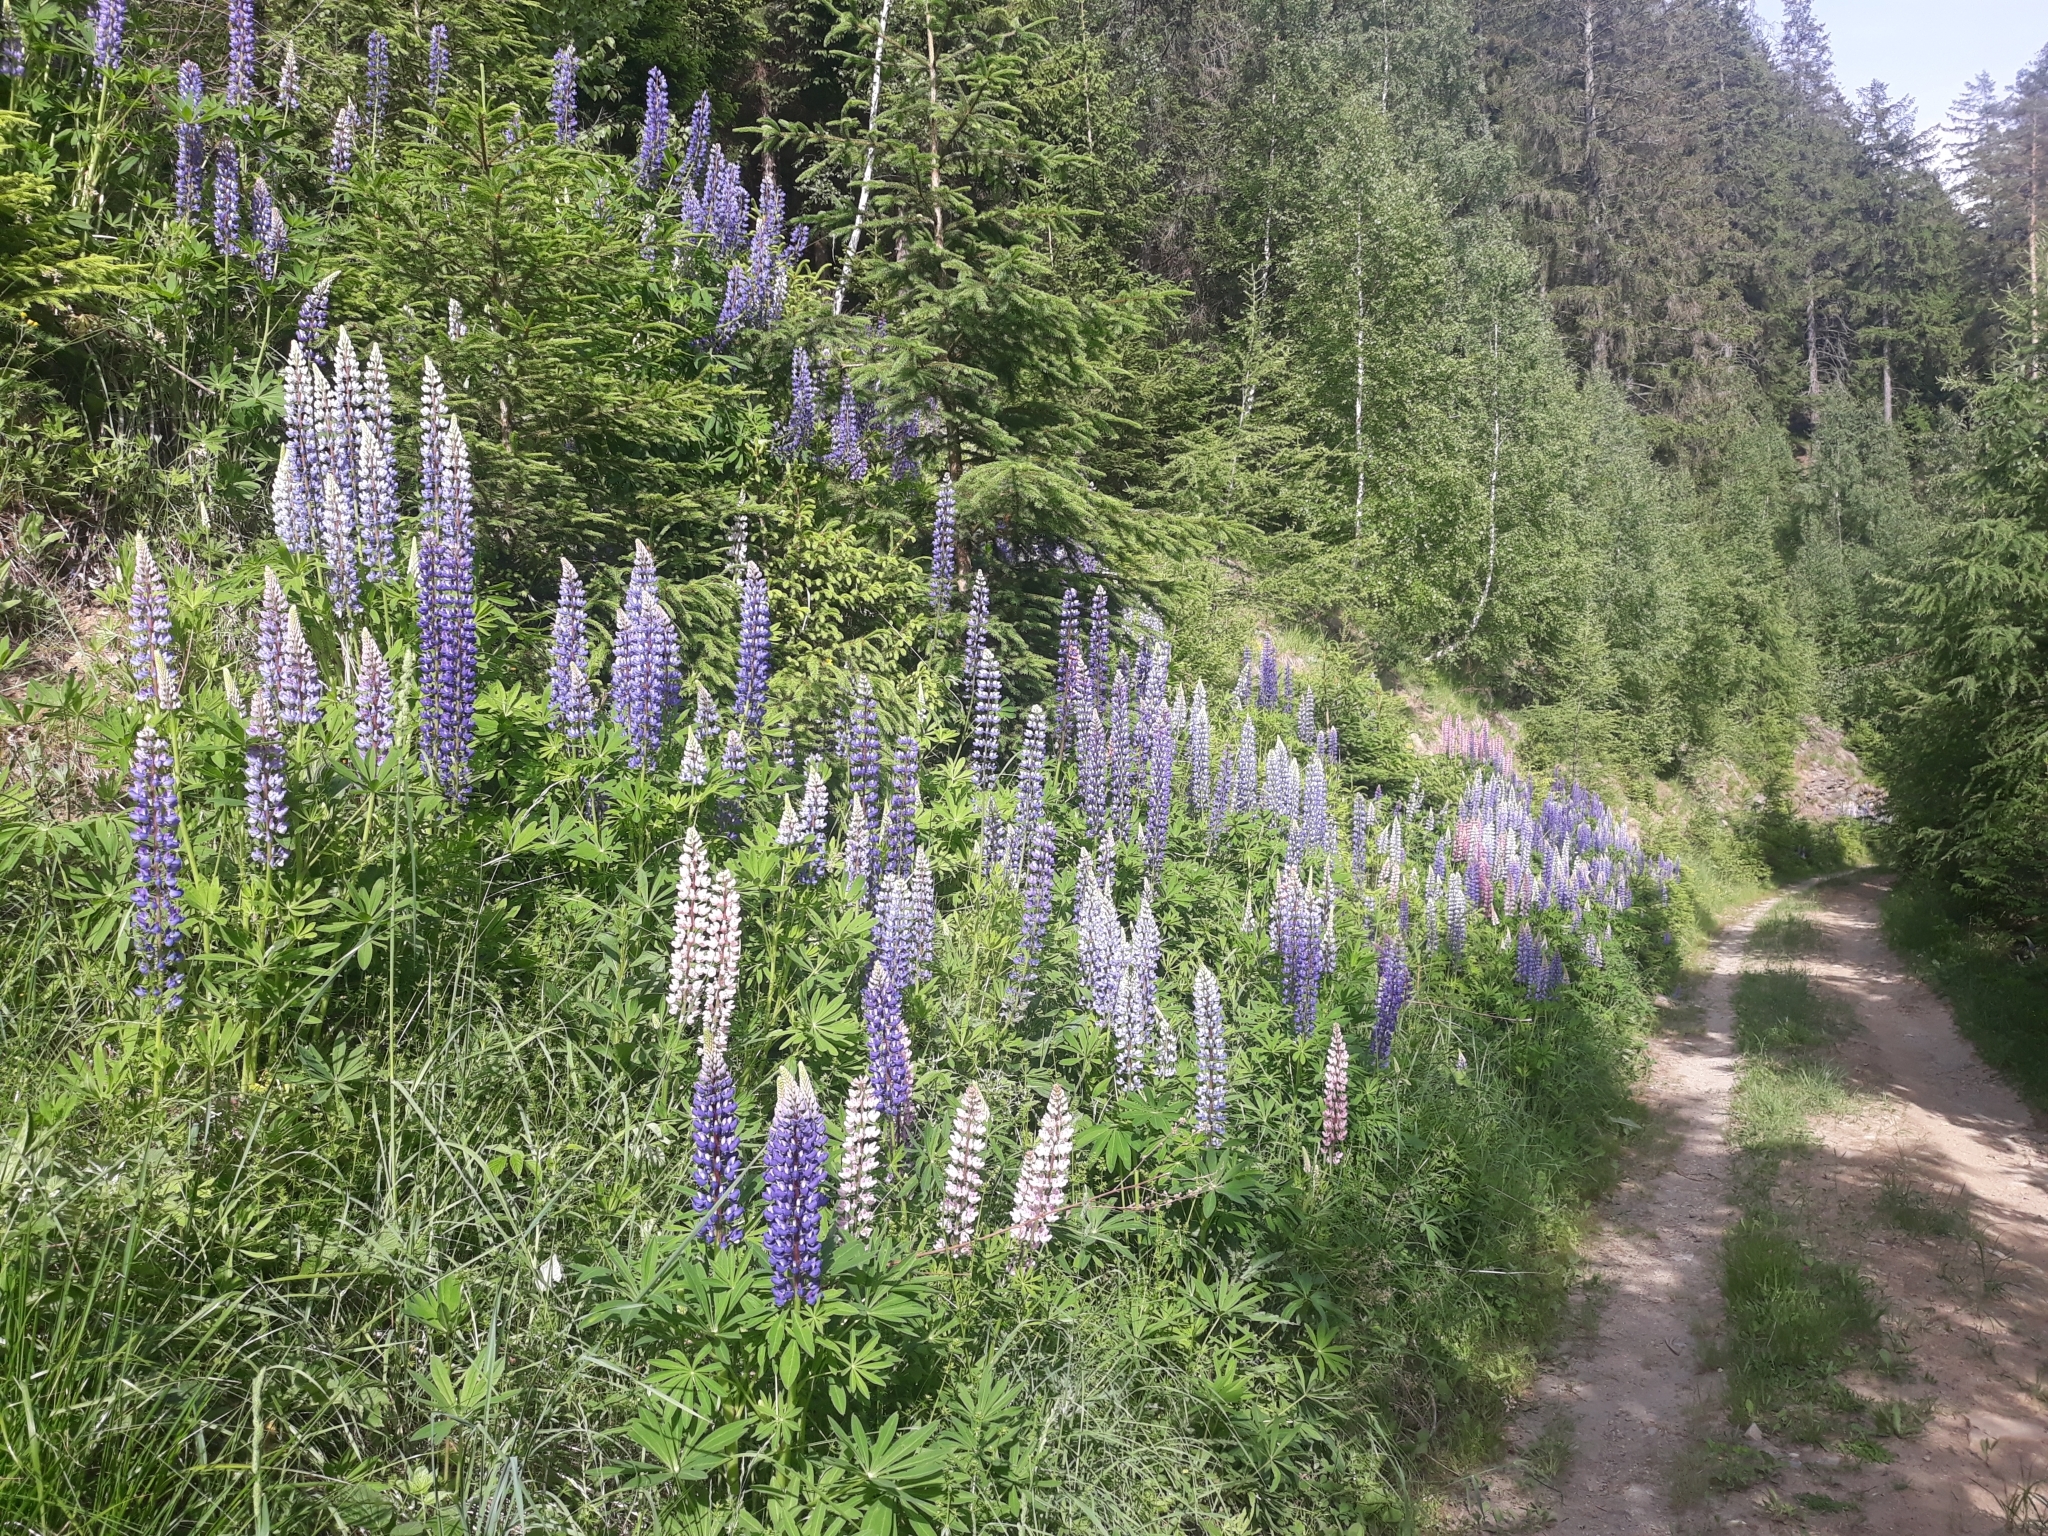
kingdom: Plantae
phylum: Tracheophyta
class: Magnoliopsida
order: Fabales
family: Fabaceae
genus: Lupinus
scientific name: Lupinus polyphyllus
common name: Garden lupin
